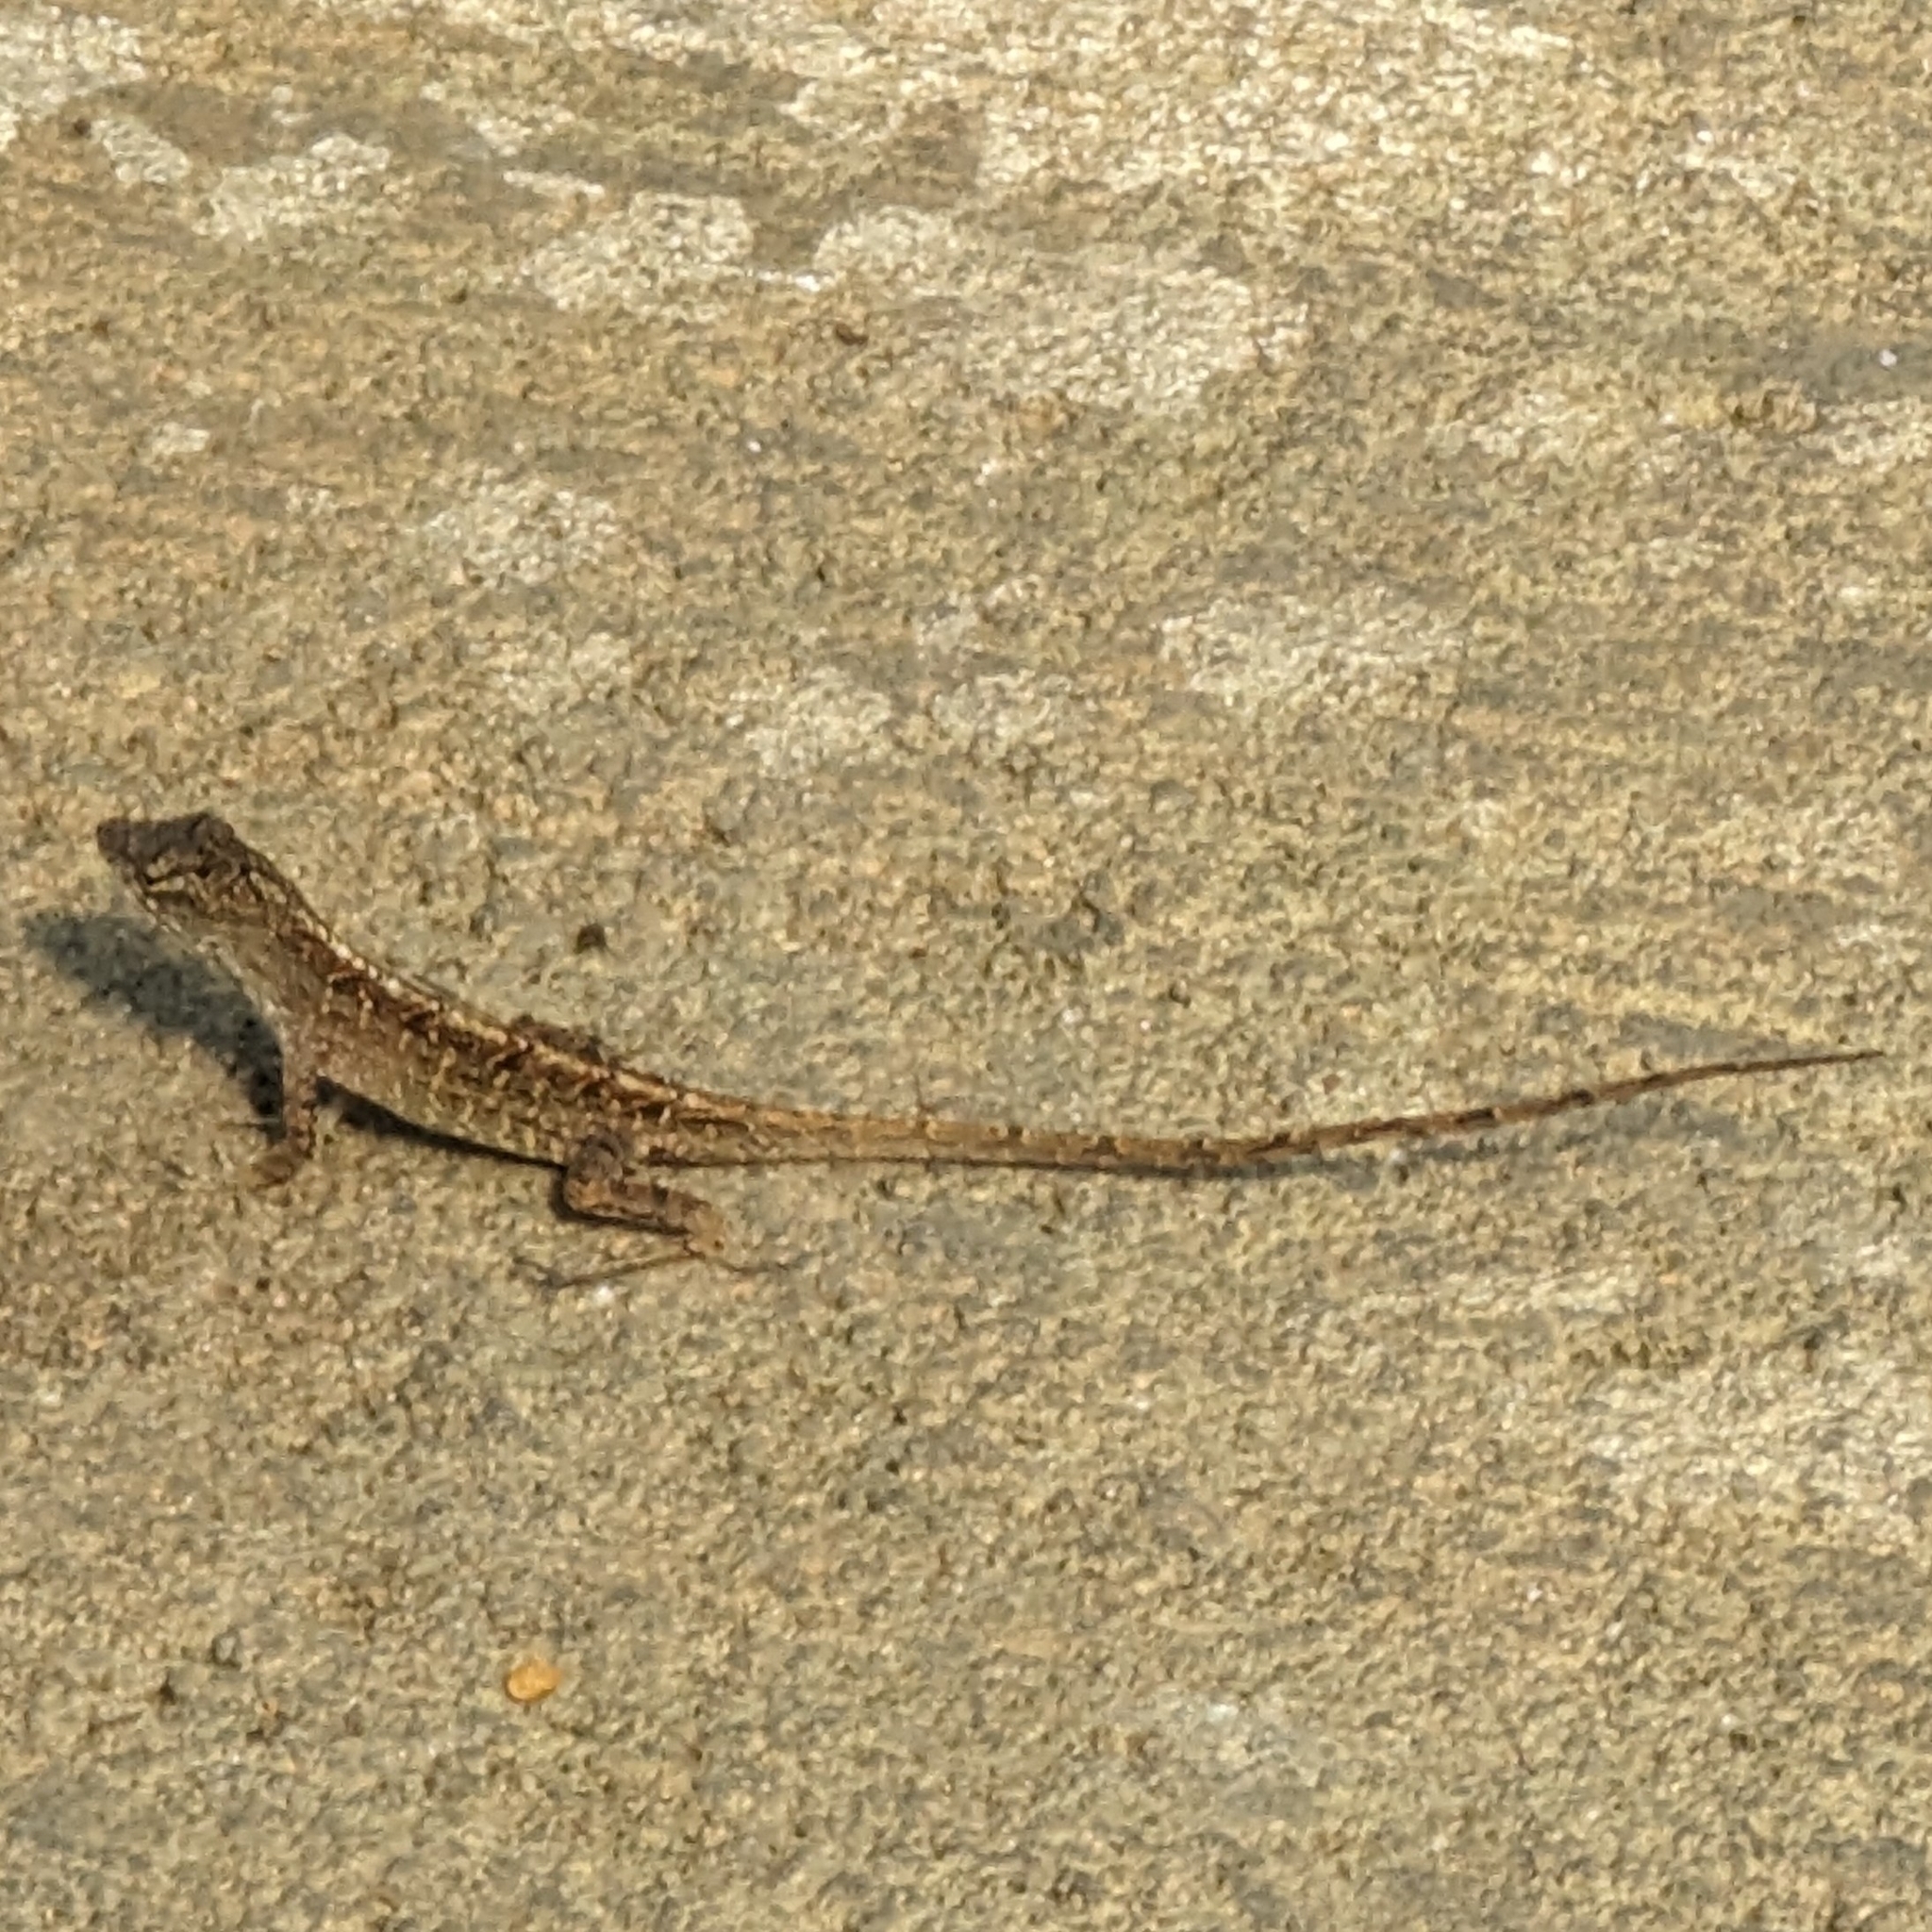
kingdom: Animalia
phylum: Chordata
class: Squamata
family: Dactyloidae
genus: Anolis
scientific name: Anolis sagrei
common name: Brown anole
